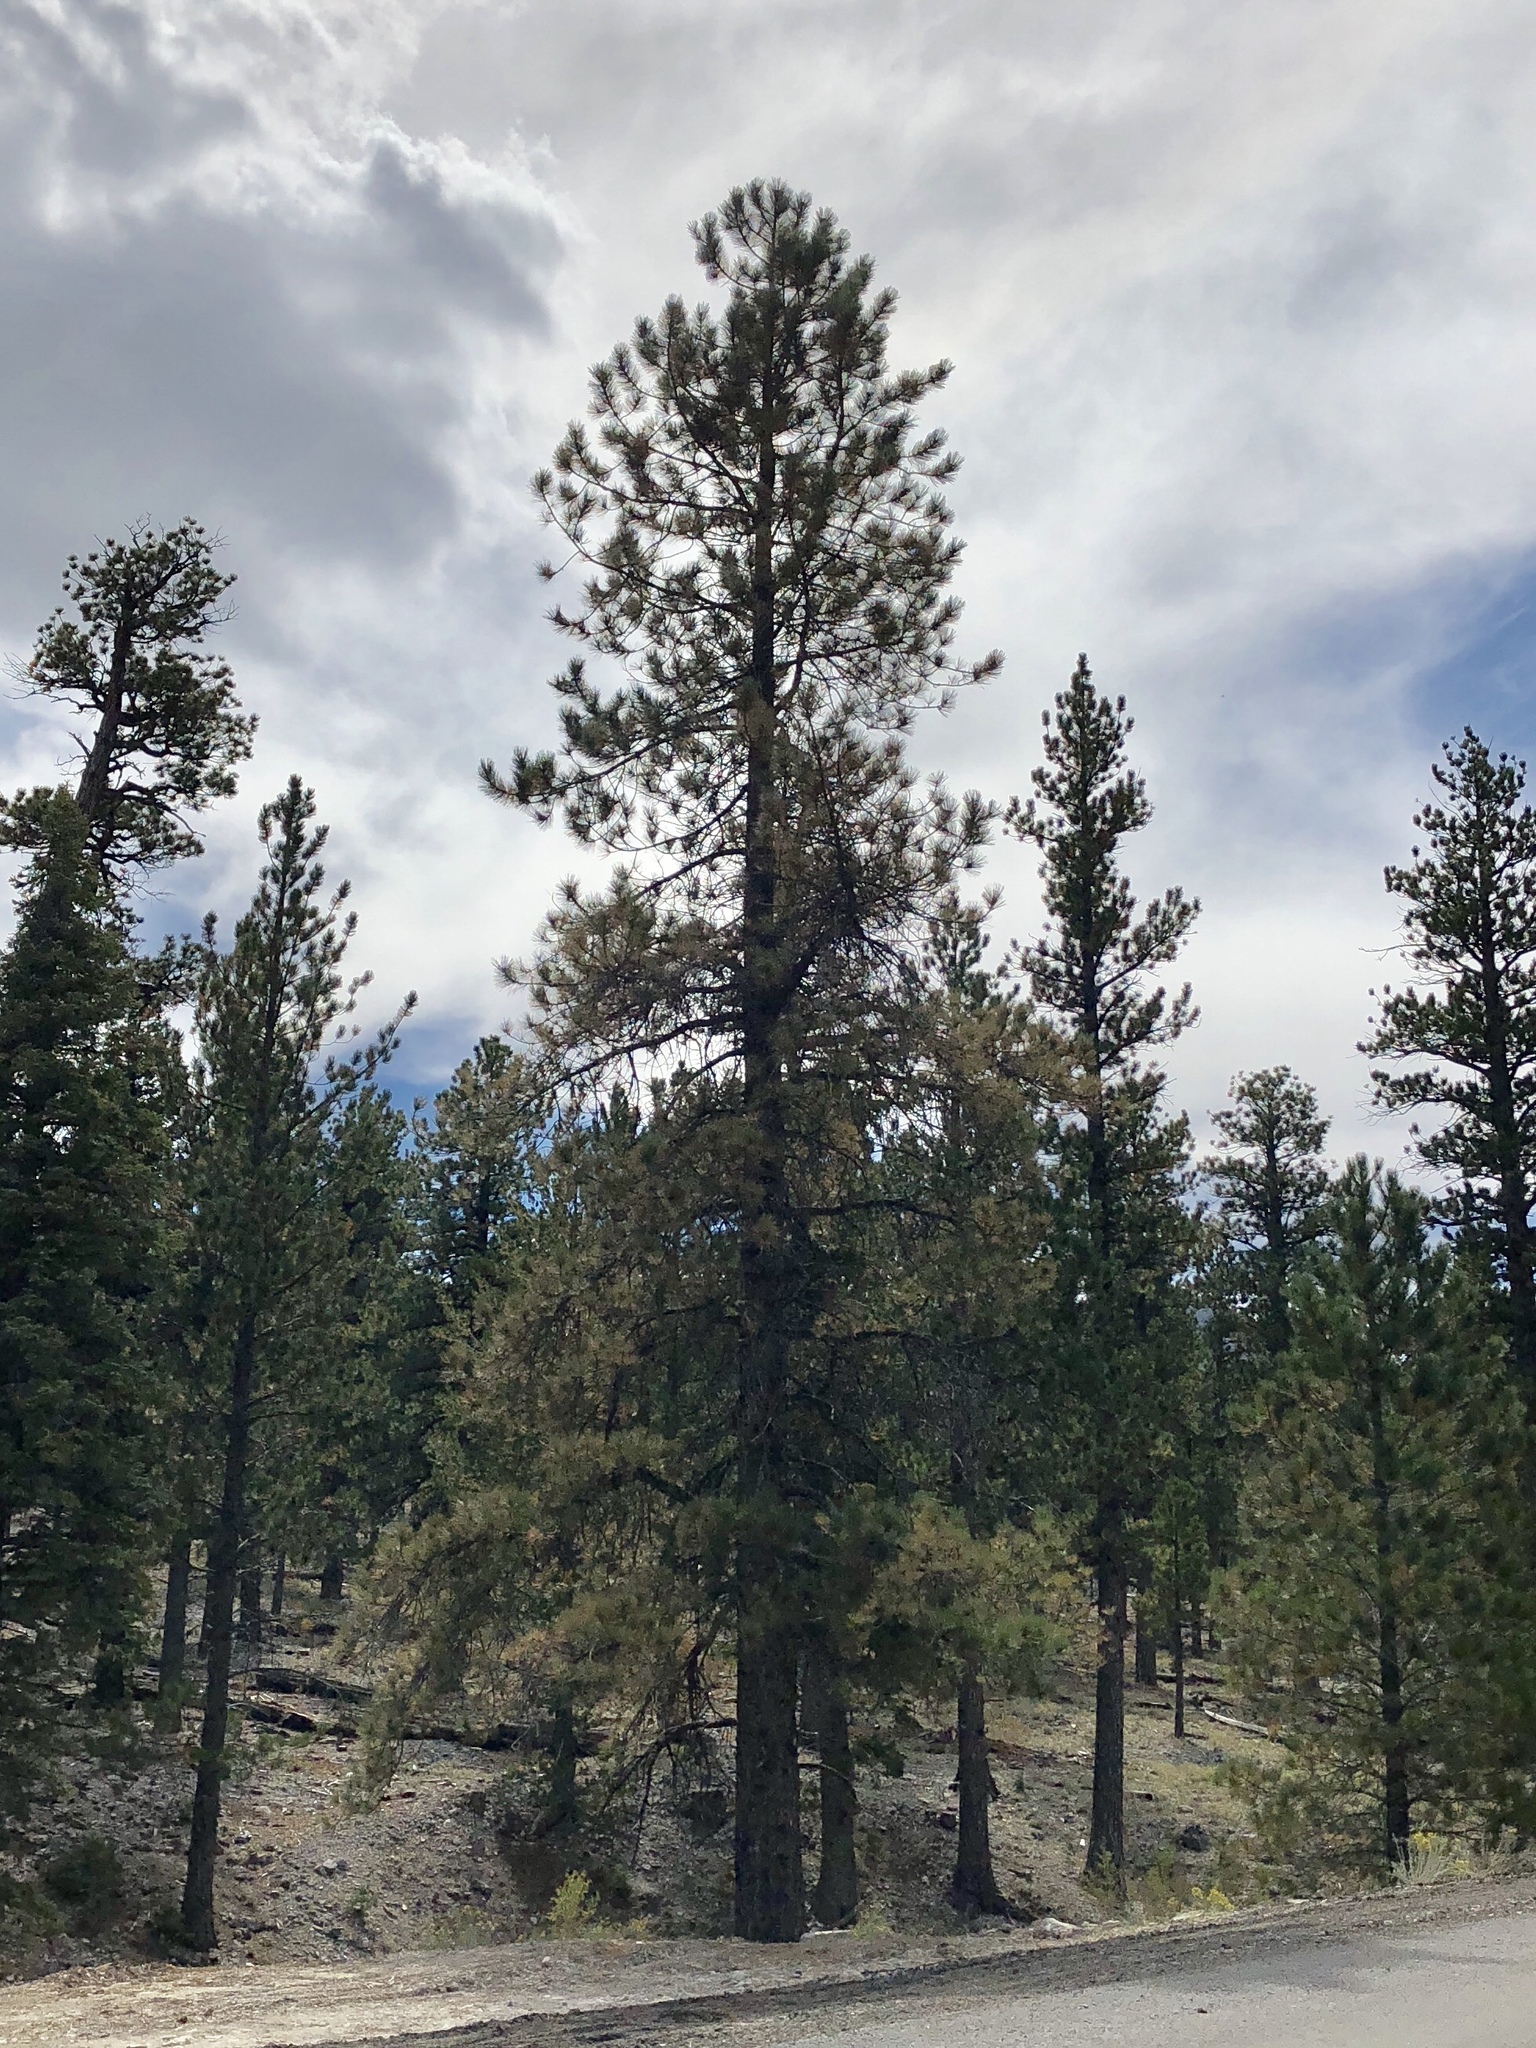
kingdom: Plantae
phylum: Tracheophyta
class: Pinopsida
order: Pinales
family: Pinaceae
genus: Pinus
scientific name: Pinus ponderosa
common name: Western yellow-pine
